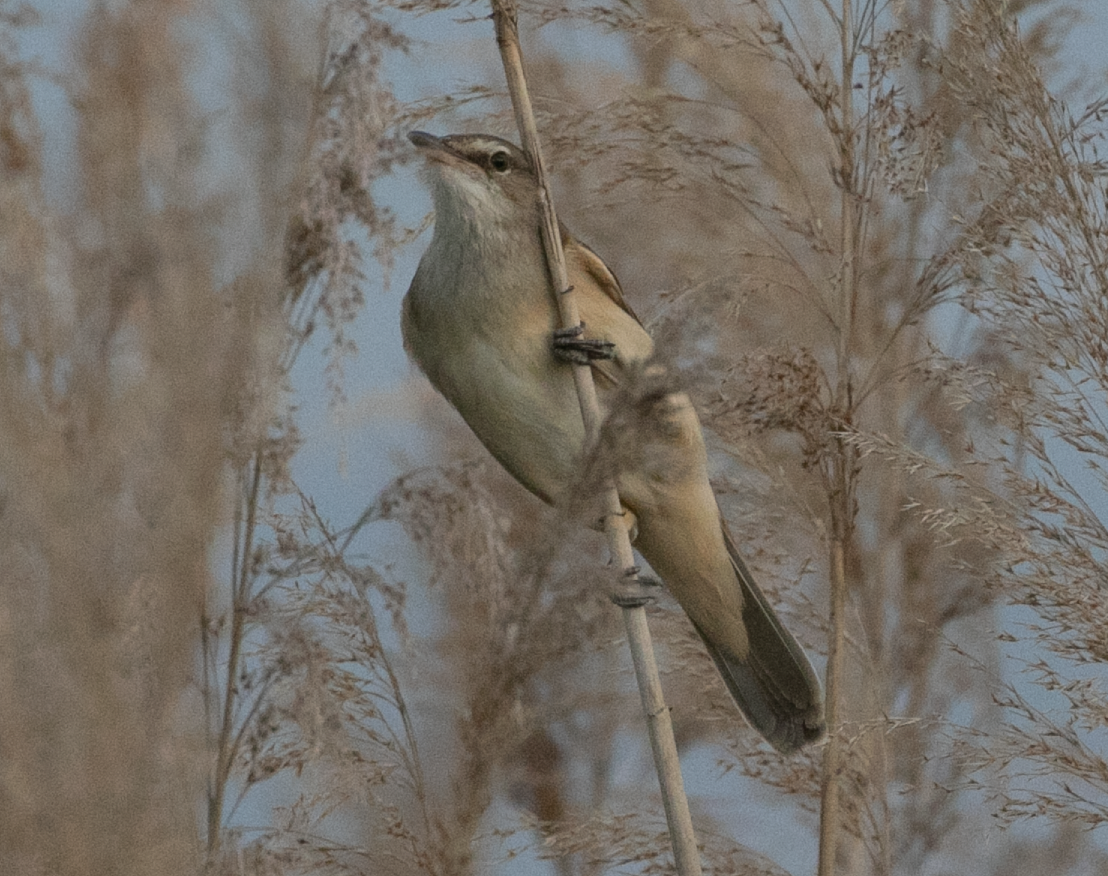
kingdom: Animalia
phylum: Chordata
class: Aves
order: Passeriformes
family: Acrocephalidae
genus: Acrocephalus
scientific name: Acrocephalus arundinaceus
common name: Great reed warbler
